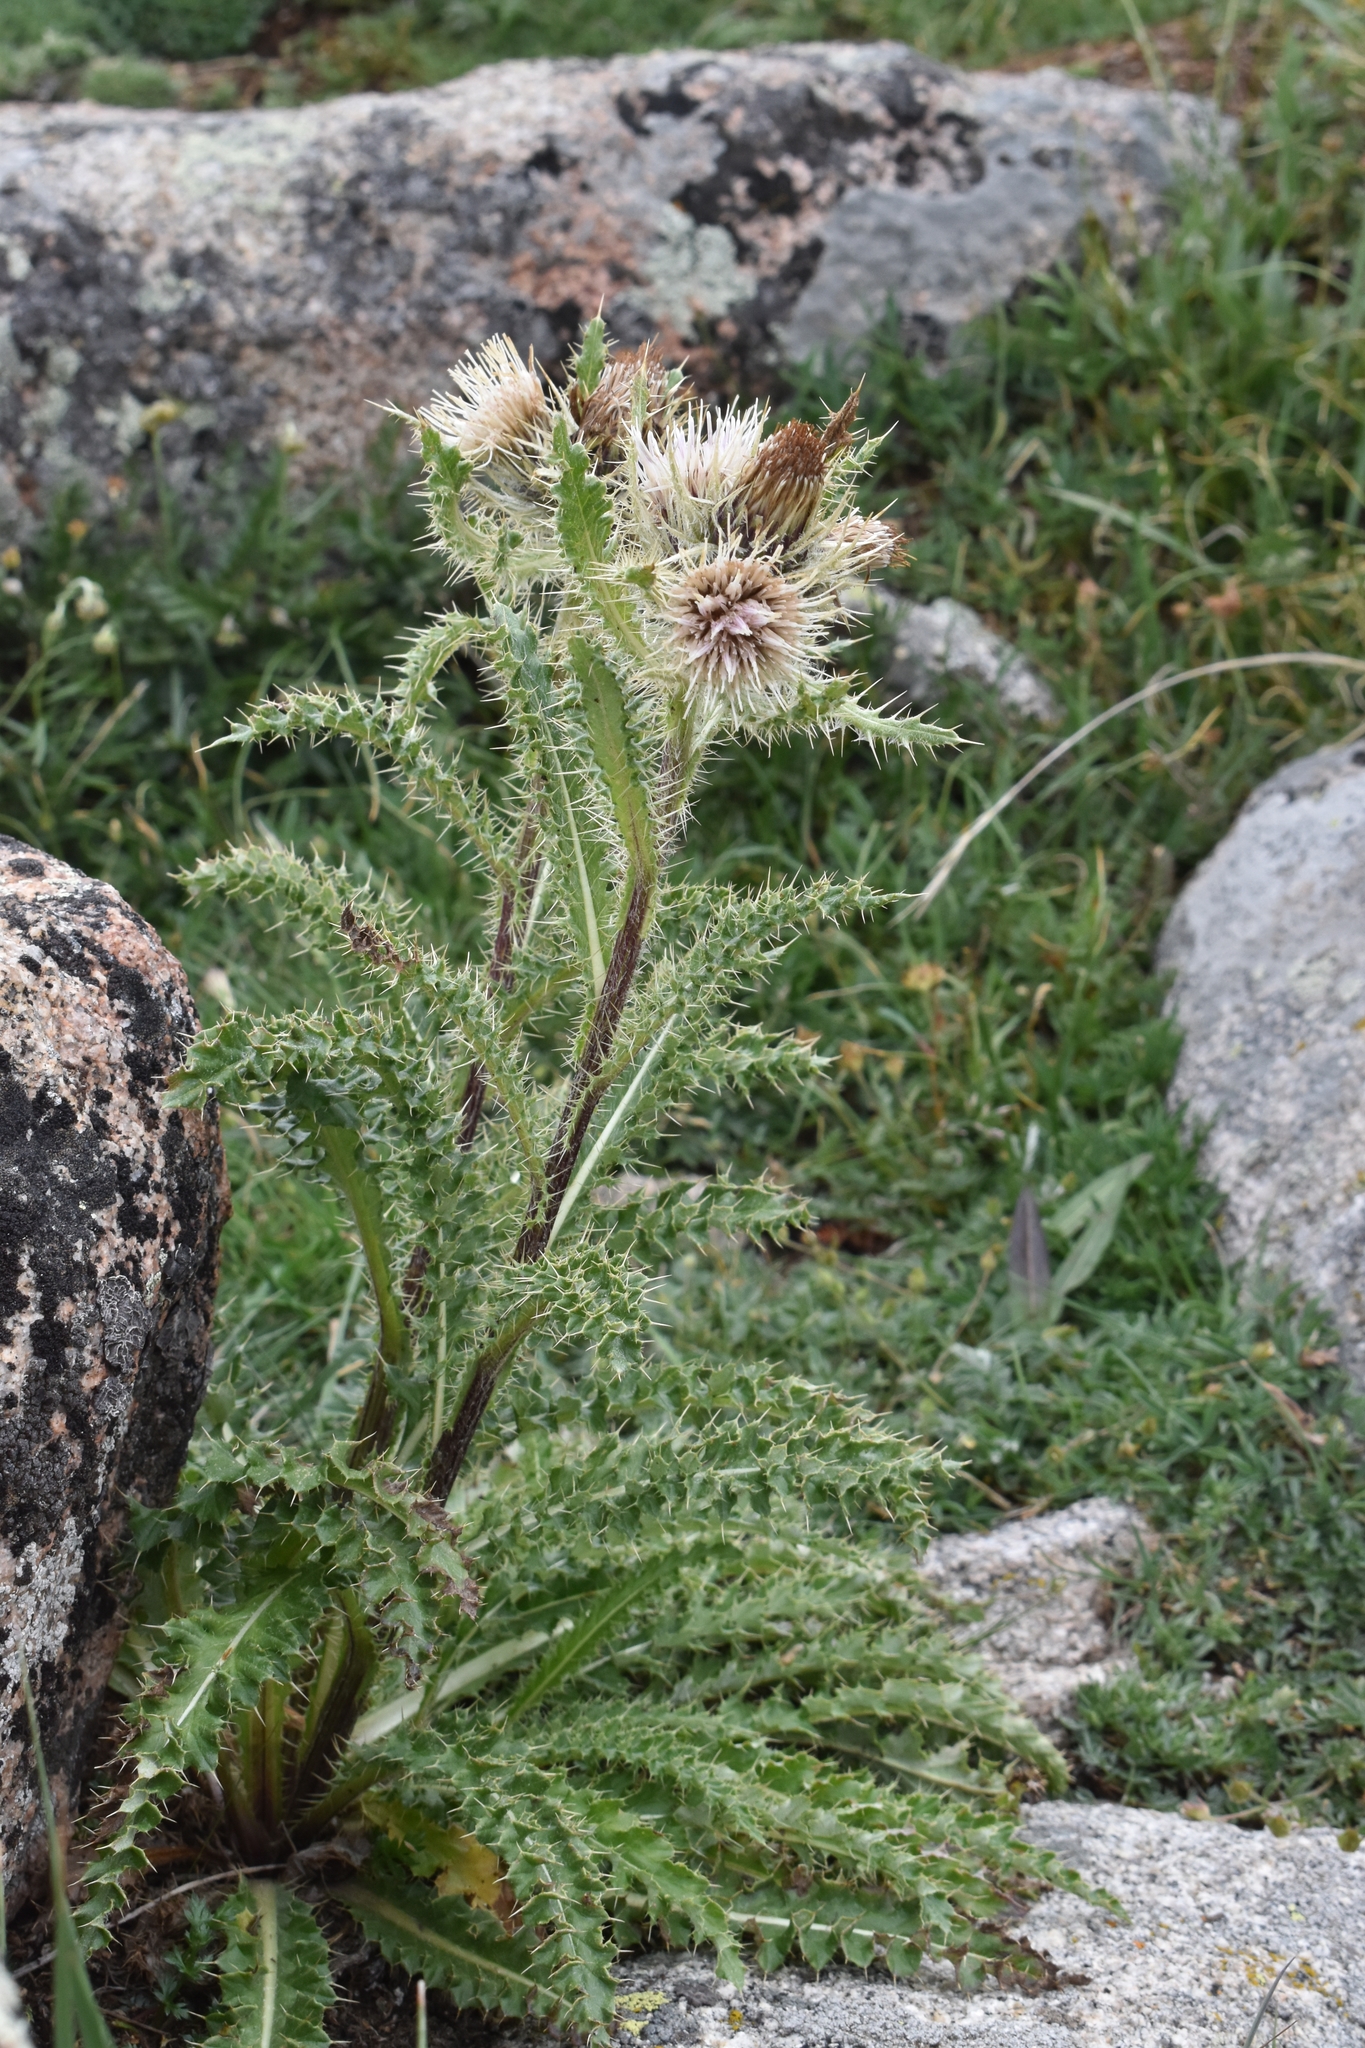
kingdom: Plantae
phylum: Tracheophyta
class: Magnoliopsida
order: Asterales
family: Asteraceae
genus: Cirsium
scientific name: Cirsium scopulorum
